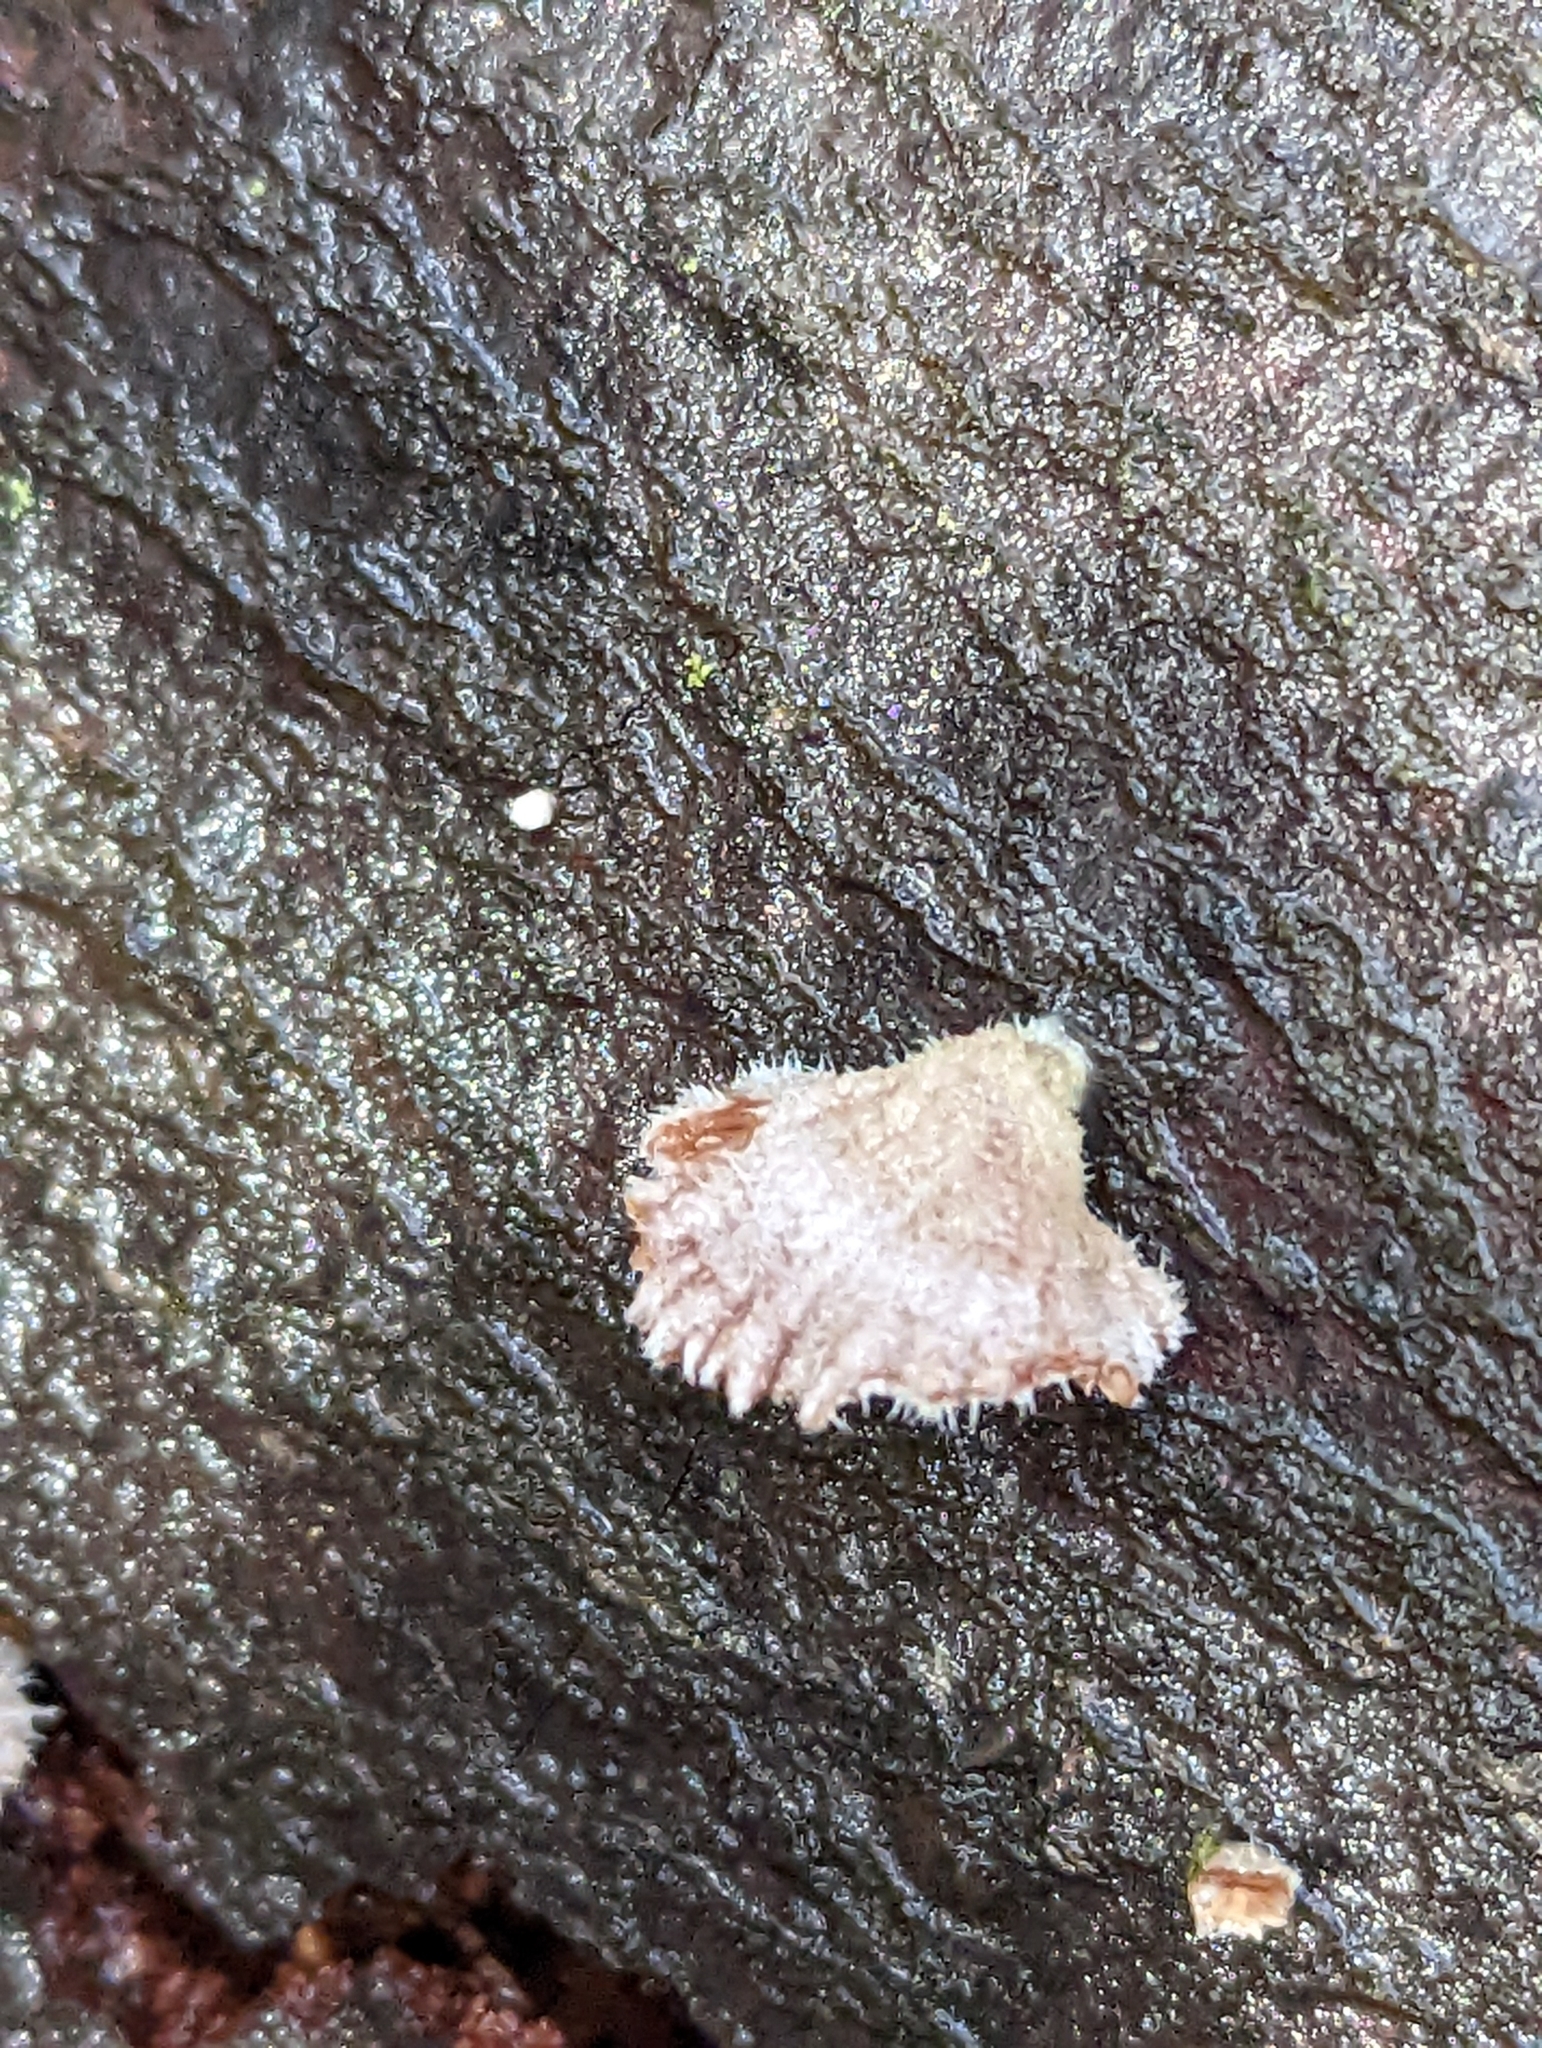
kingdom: Fungi
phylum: Basidiomycota
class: Agaricomycetes
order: Agaricales
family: Schizophyllaceae
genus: Schizophyllum
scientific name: Schizophyllum commune
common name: Common porecrust
